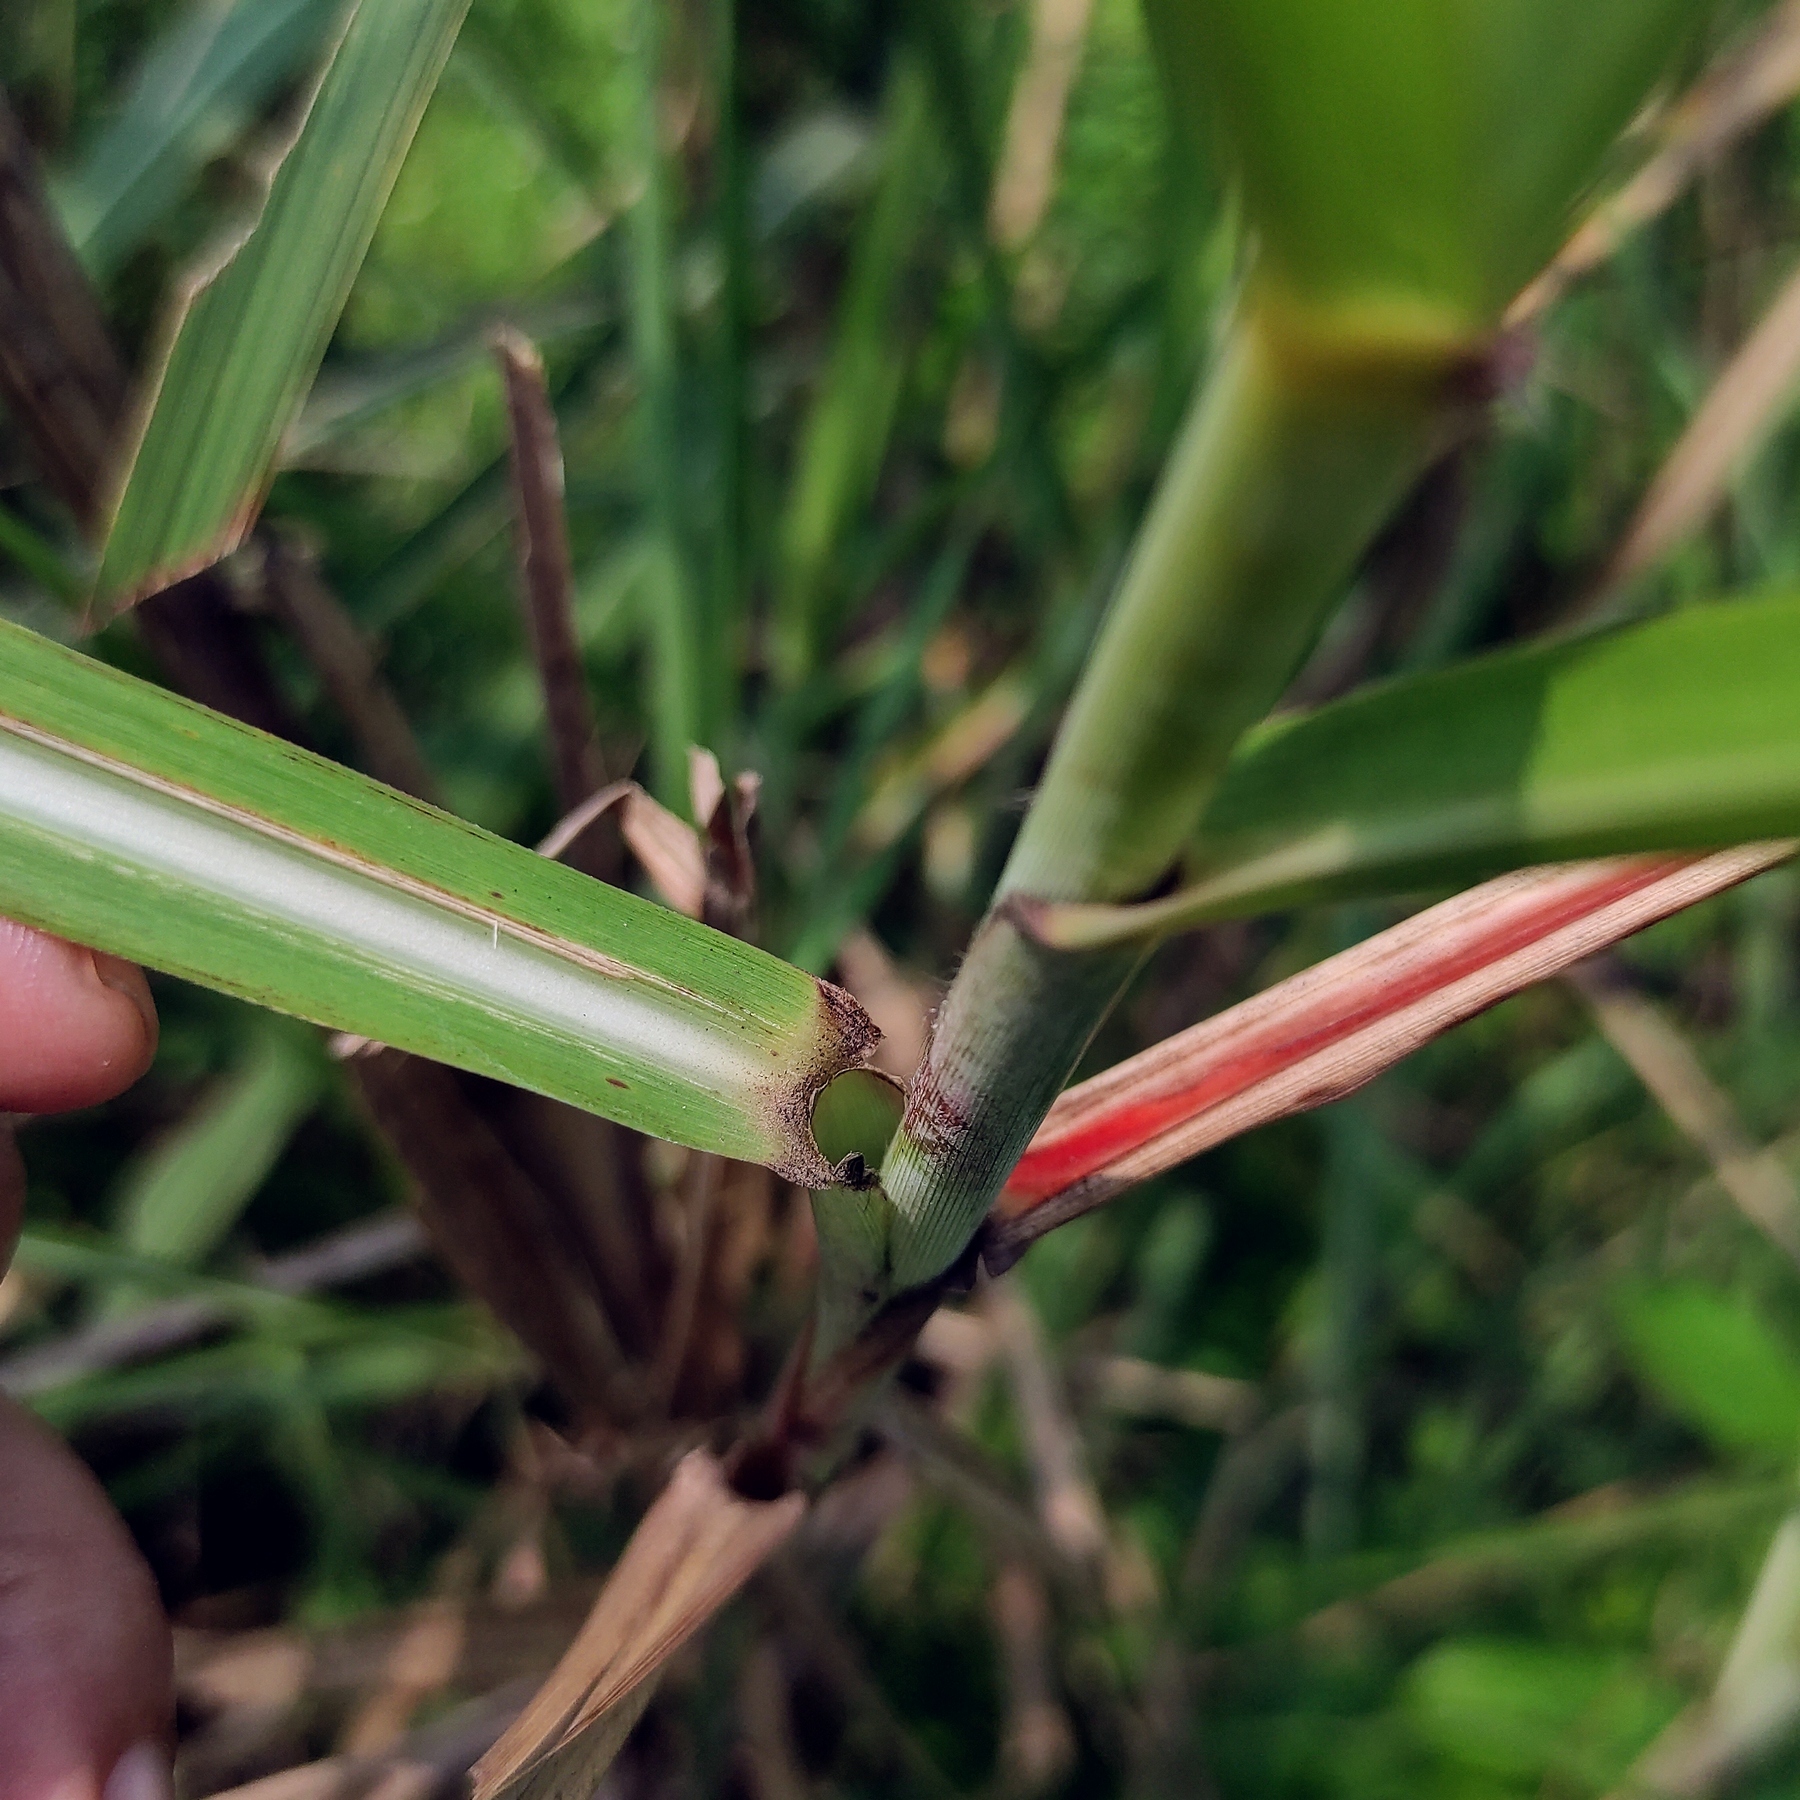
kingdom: Plantae
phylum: Tracheophyta
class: Liliopsida
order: Poales
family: Poaceae
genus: Saccharum
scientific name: Saccharum spontaneum
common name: Wild sugarcane
